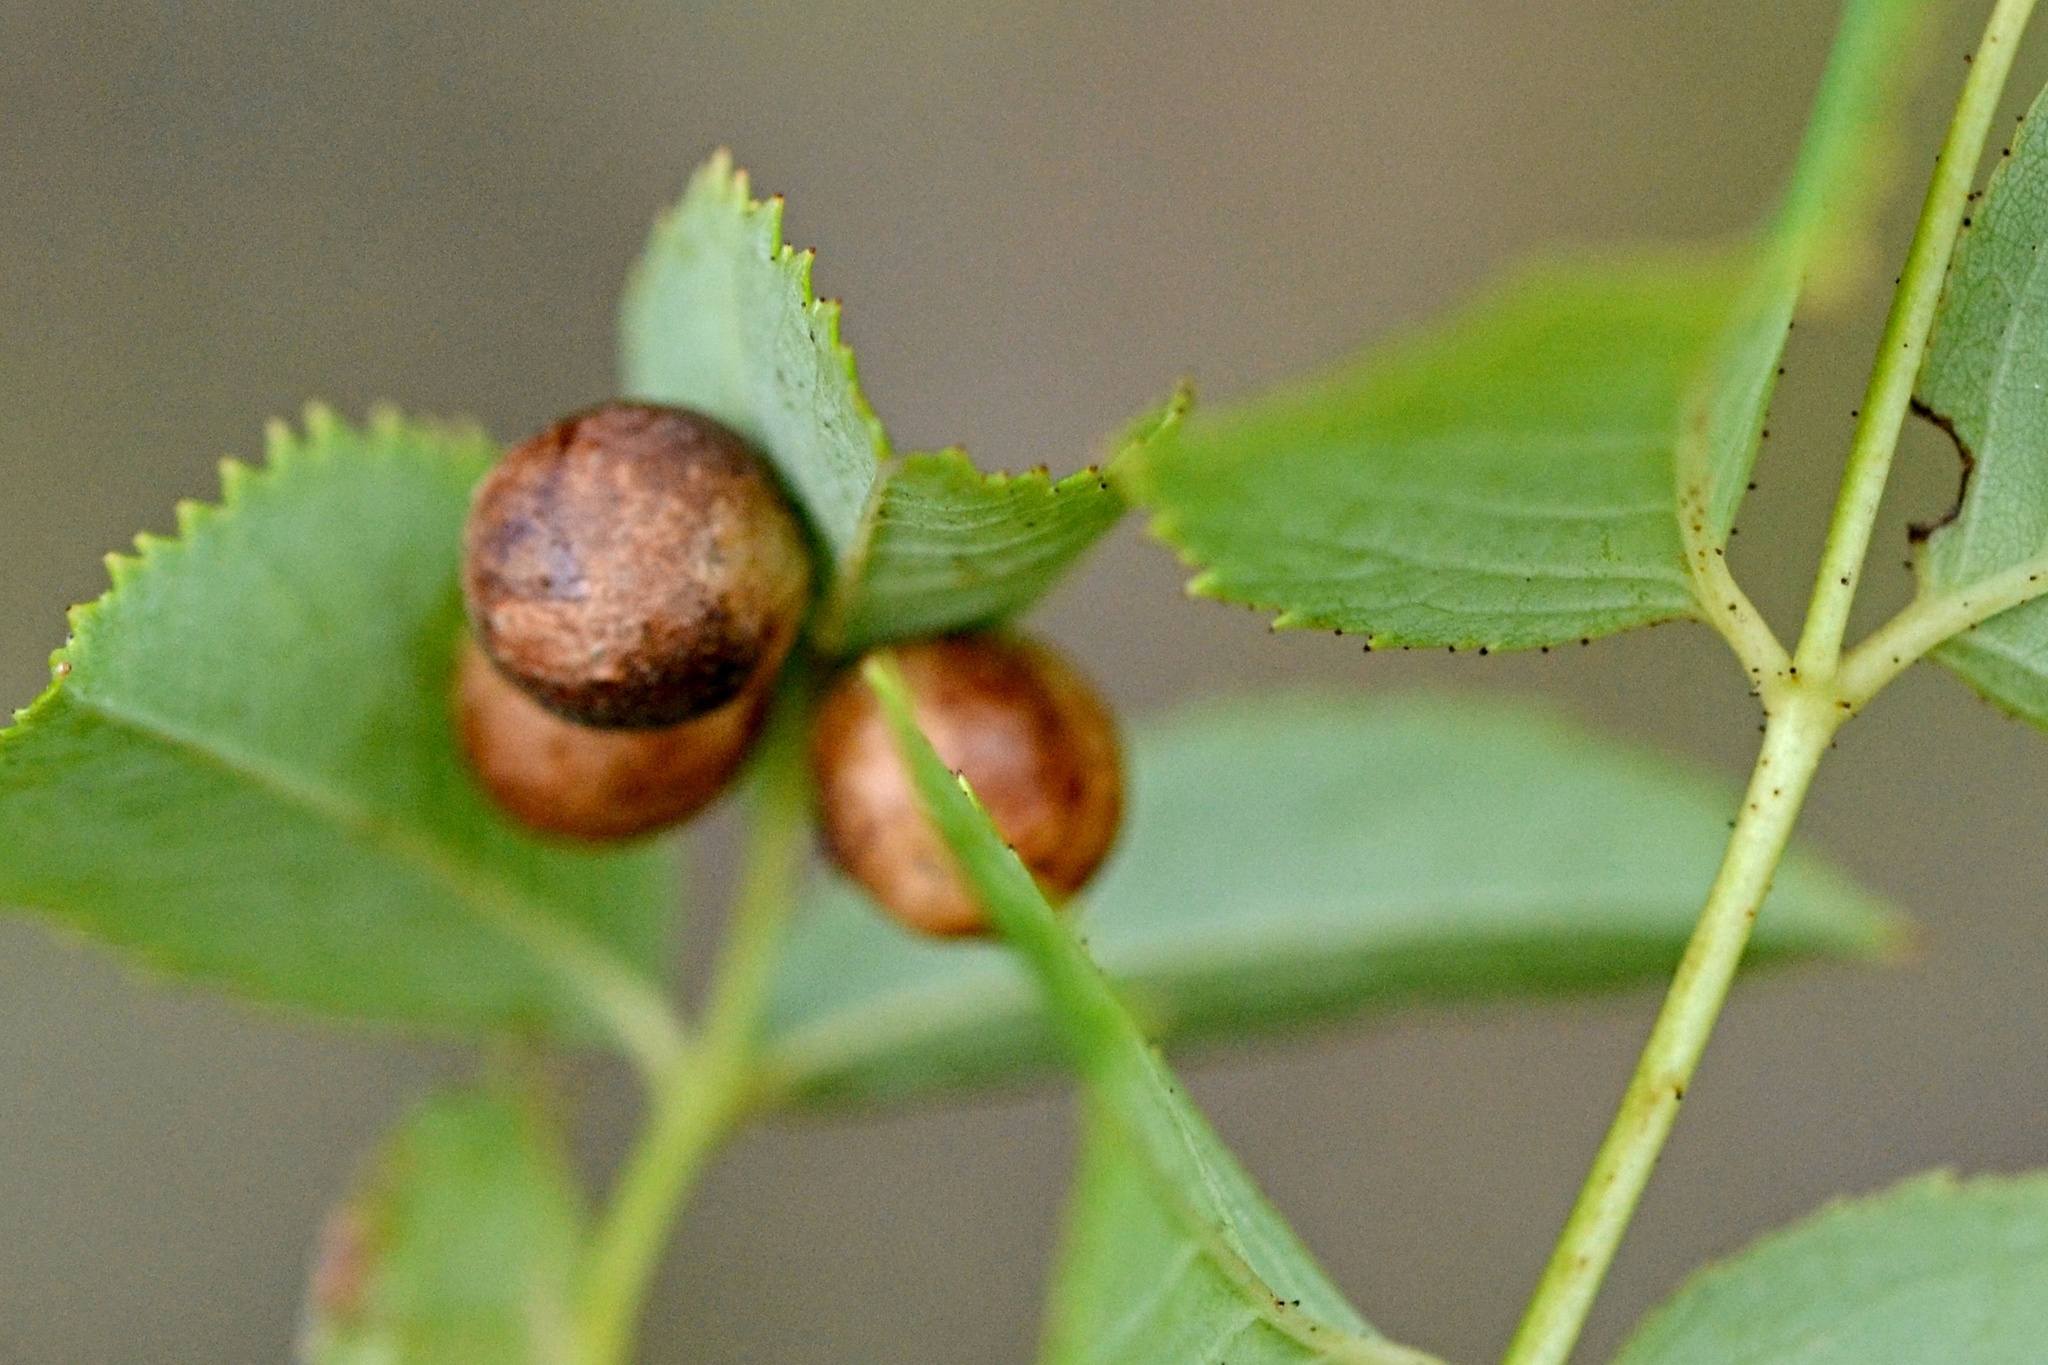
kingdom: Animalia
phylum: Arthropoda
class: Insecta
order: Hymenoptera
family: Cynipidae
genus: Diplolepis
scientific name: Diplolepis
